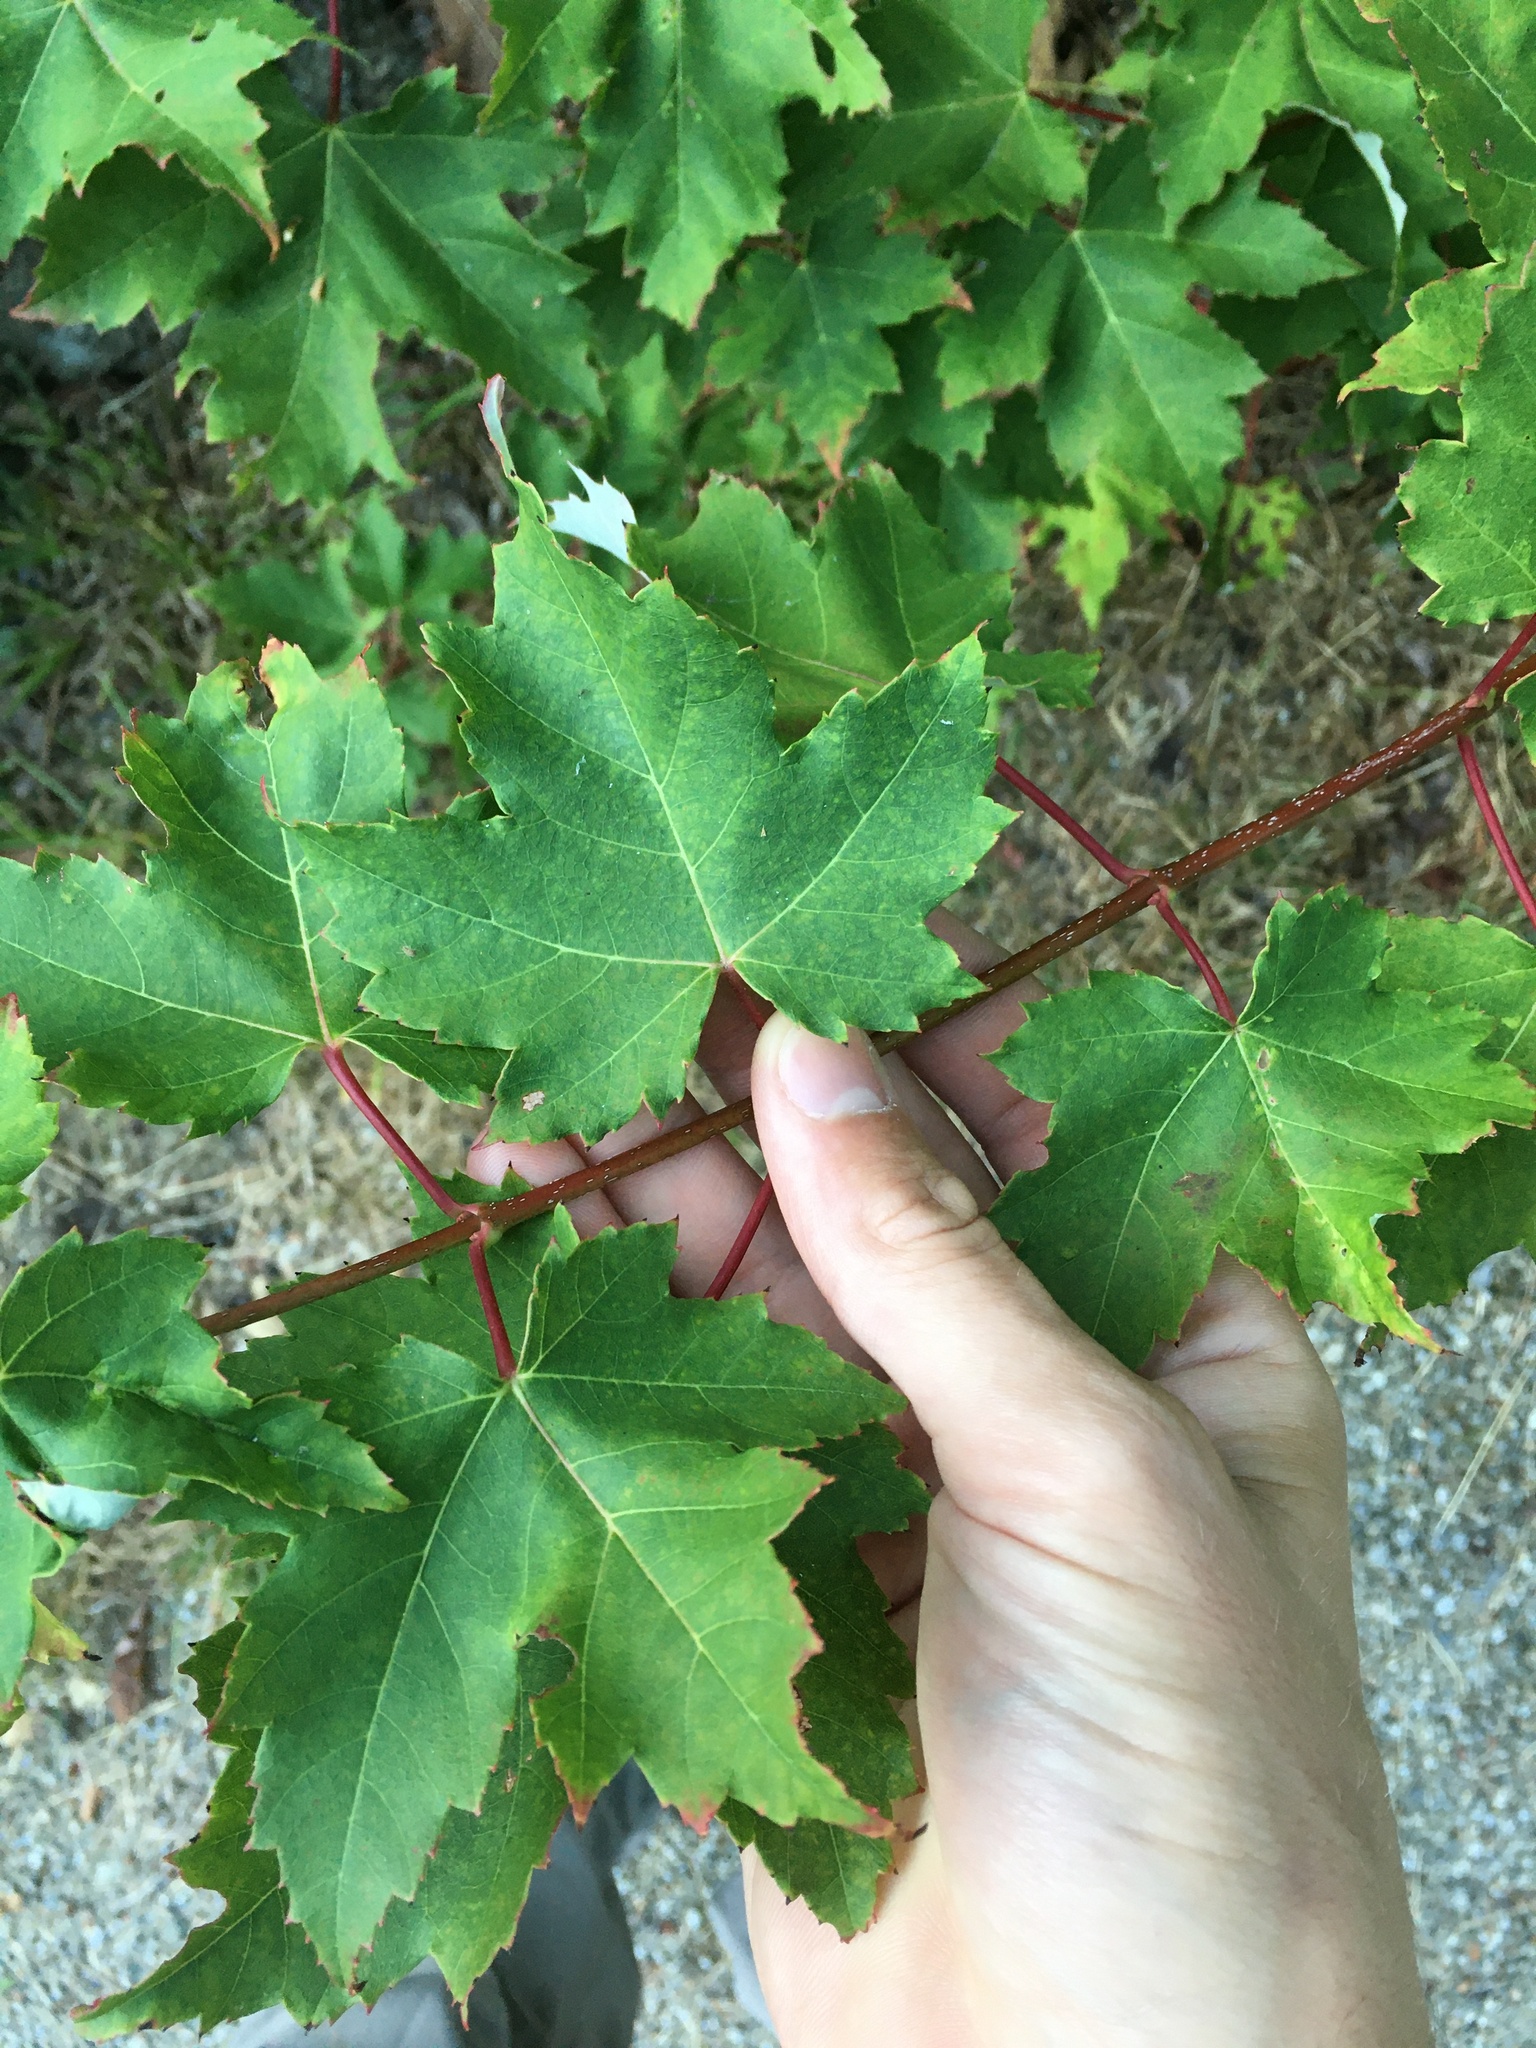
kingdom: Plantae
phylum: Tracheophyta
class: Magnoliopsida
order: Sapindales
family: Sapindaceae
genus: Acer
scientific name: Acer rubrum
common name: Red maple
